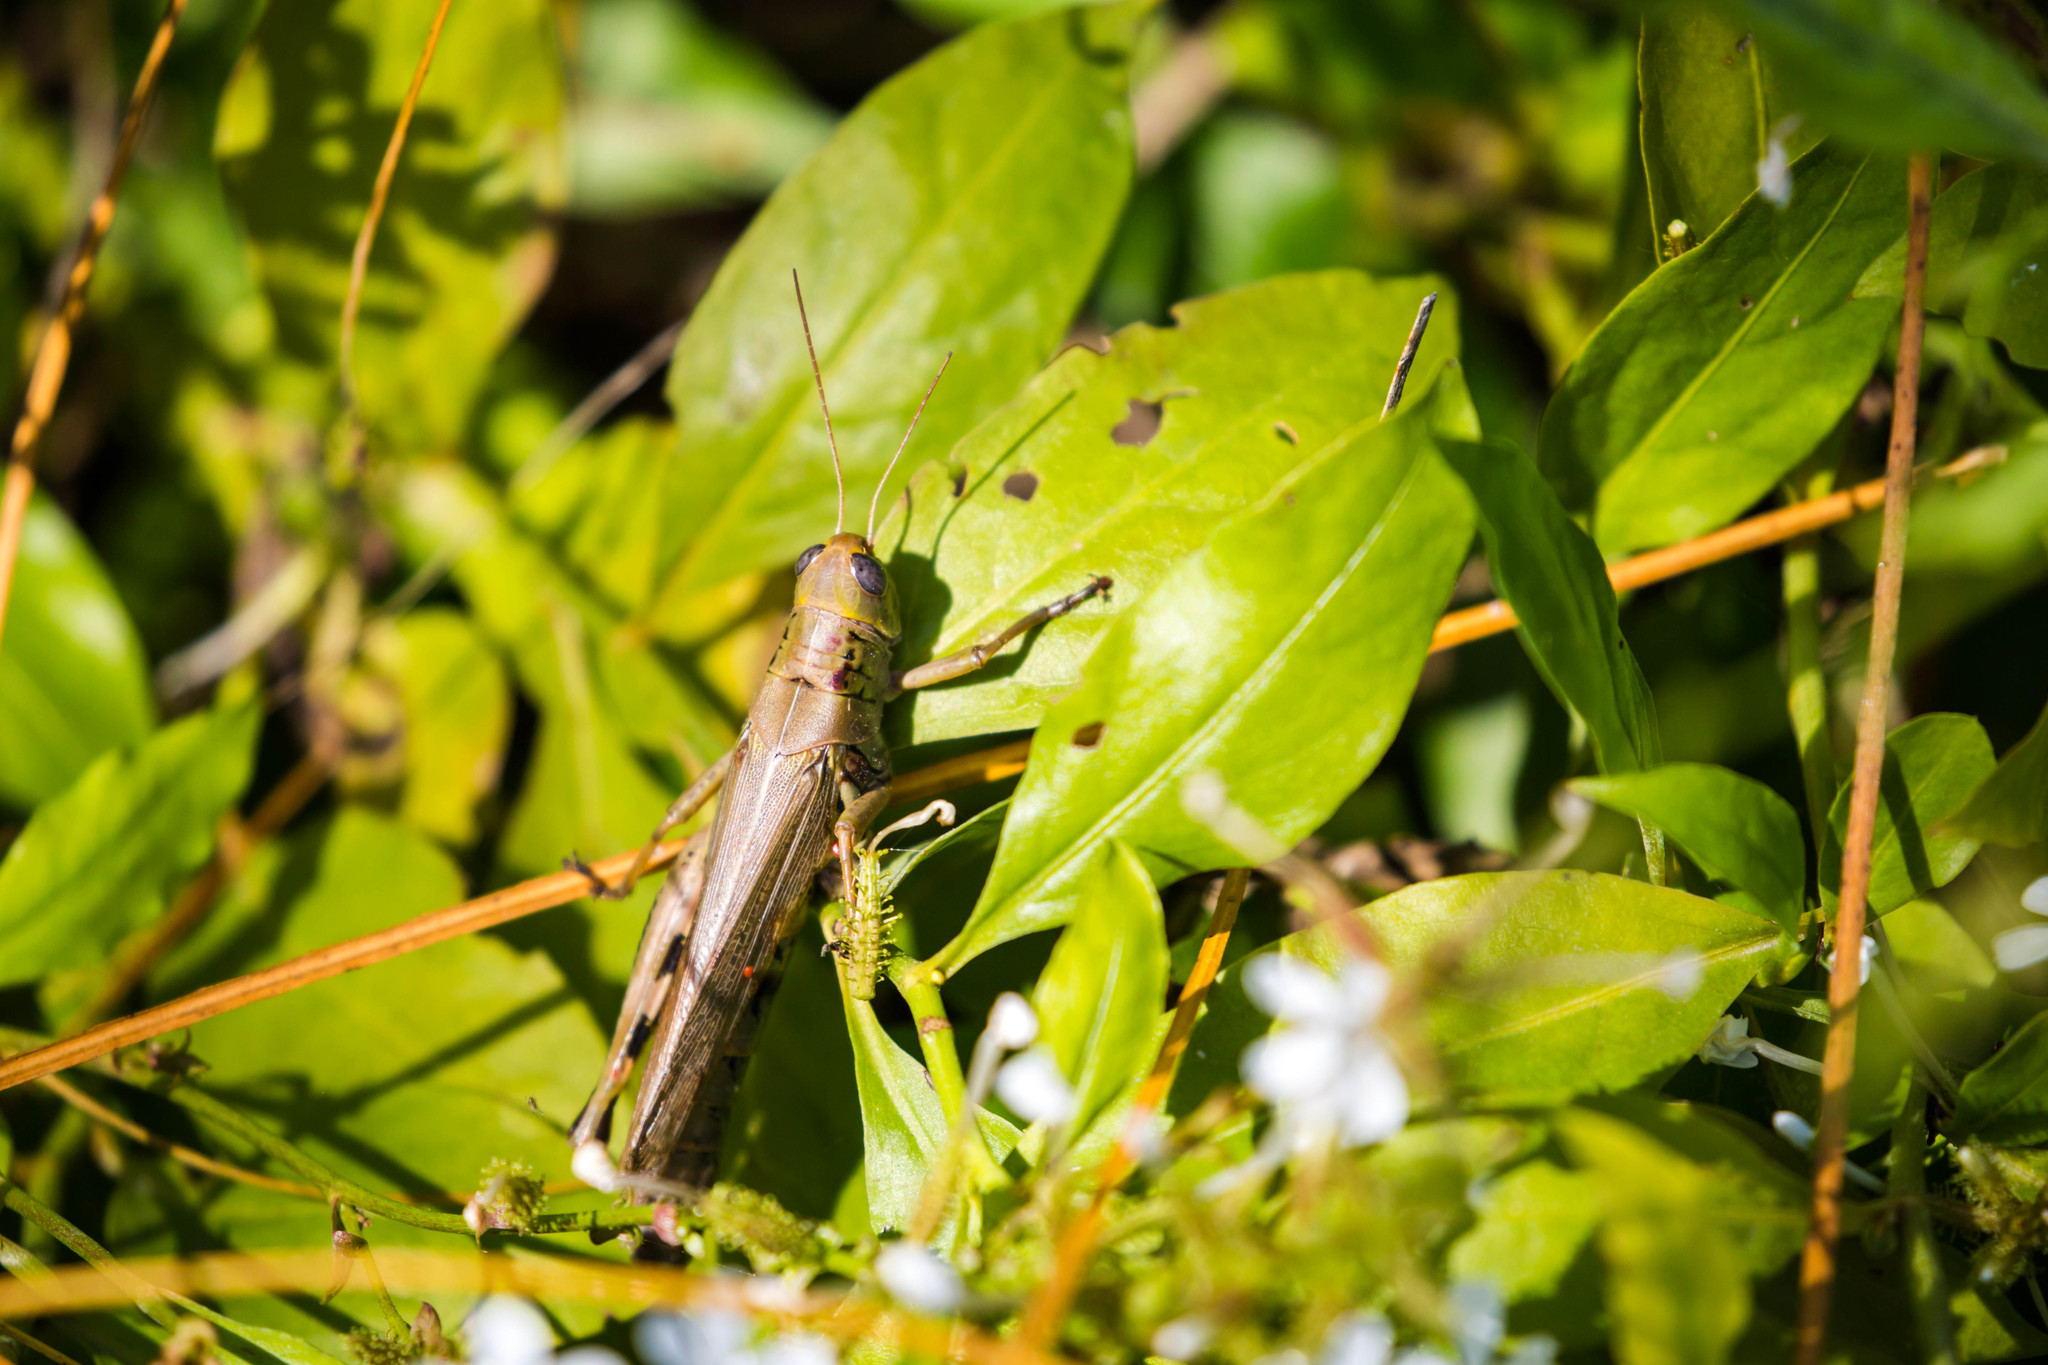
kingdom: Animalia
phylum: Arthropoda
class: Insecta
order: Orthoptera
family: Acrididae
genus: Melanoplus
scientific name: Melanoplus differentialis
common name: Differential grasshopper
